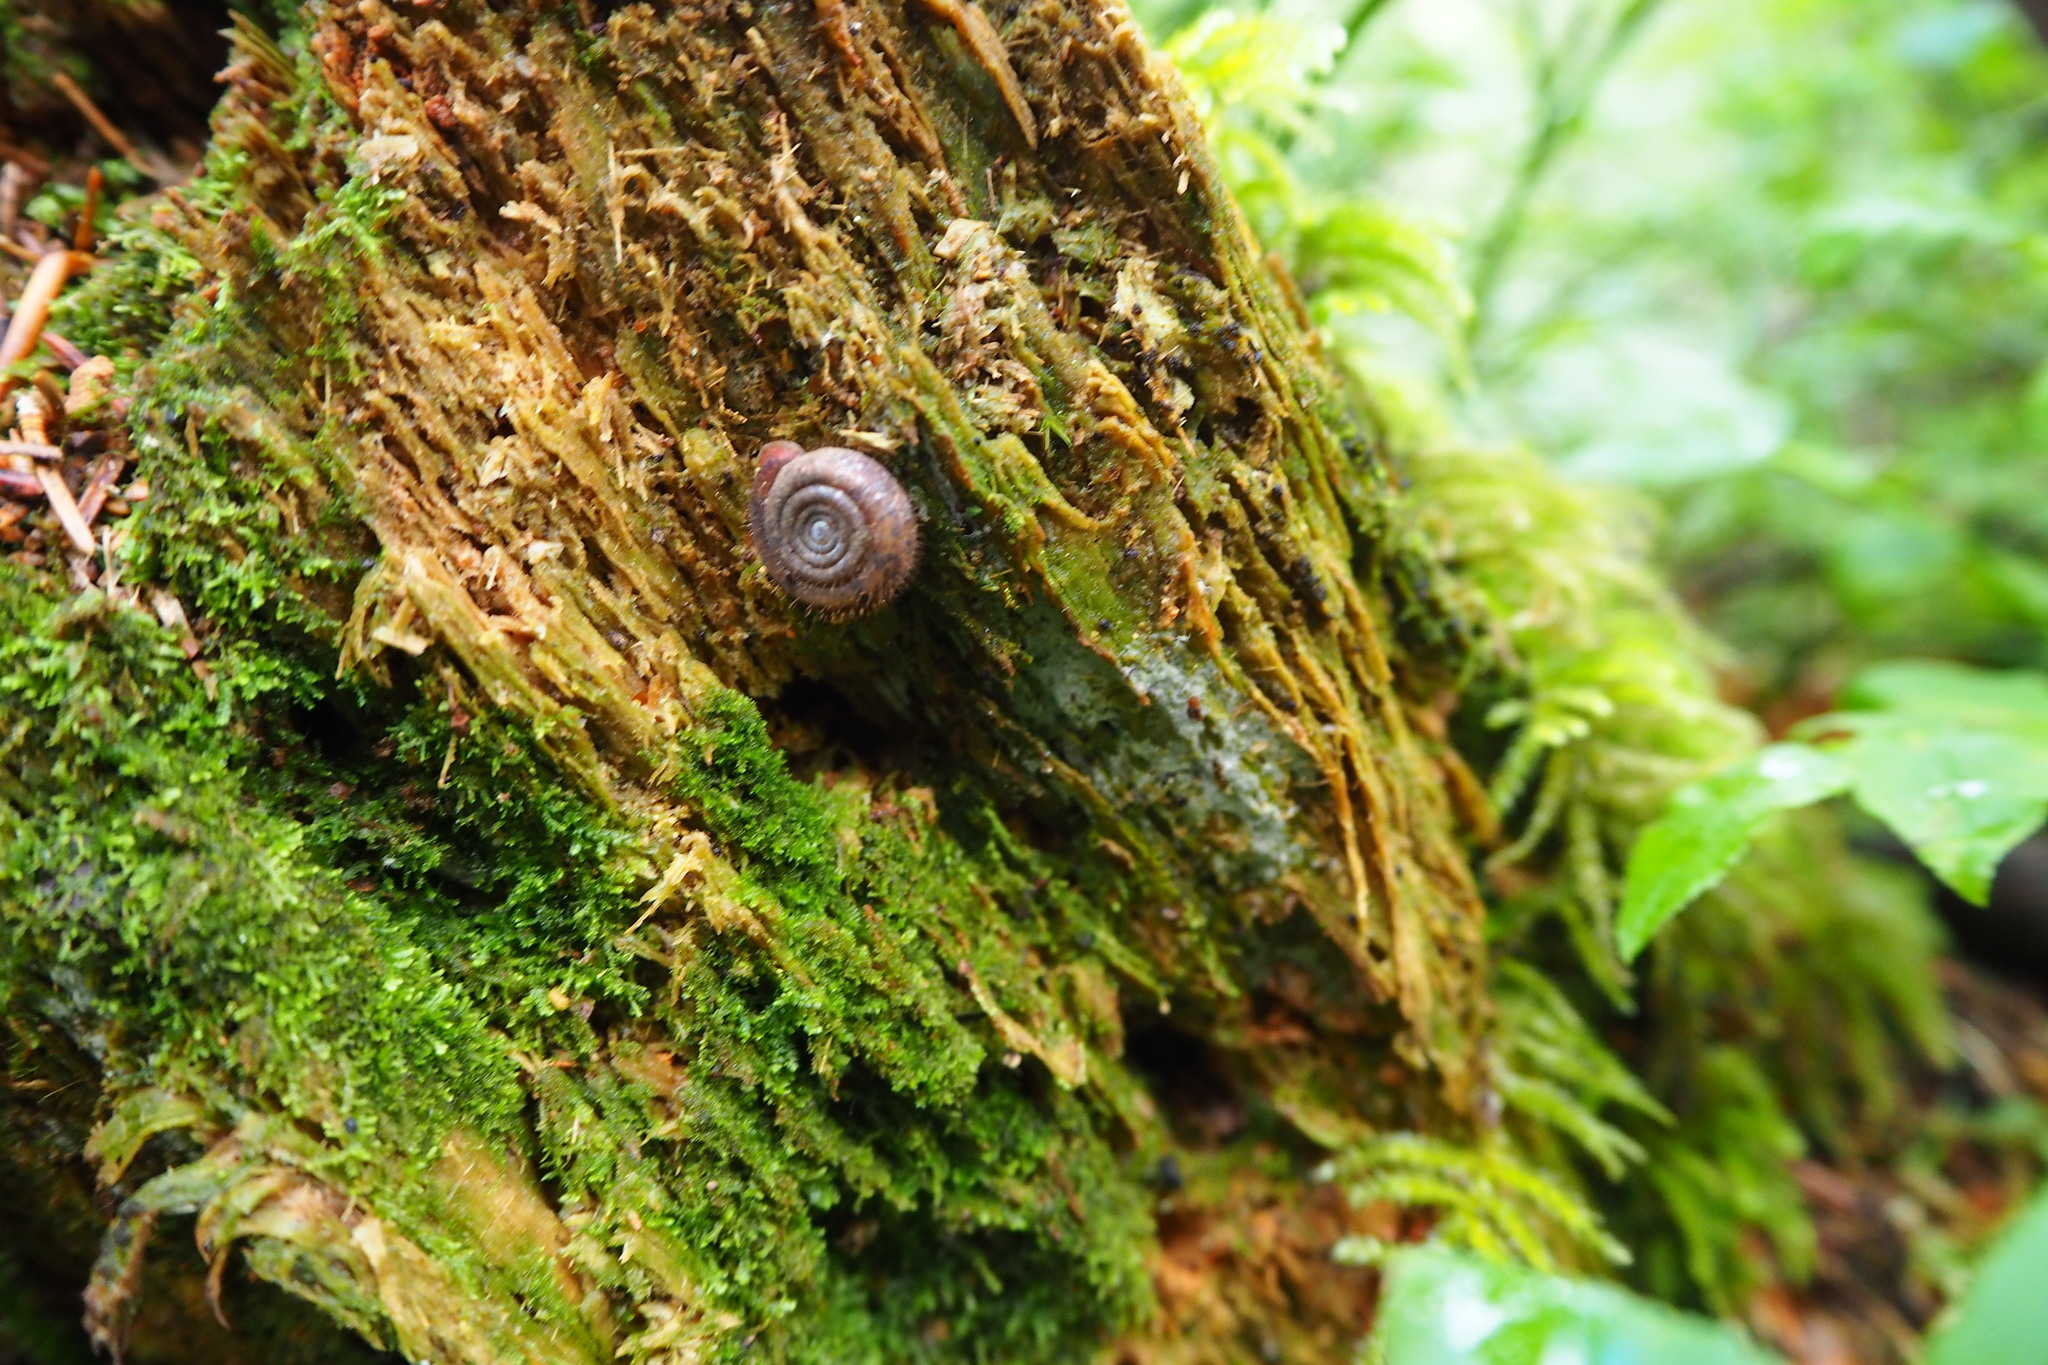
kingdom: Animalia
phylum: Mollusca
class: Gastropoda
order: Stylommatophora
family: Helicodontidae
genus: Helicodonta
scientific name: Helicodonta obvoluta
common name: Cheese snail
